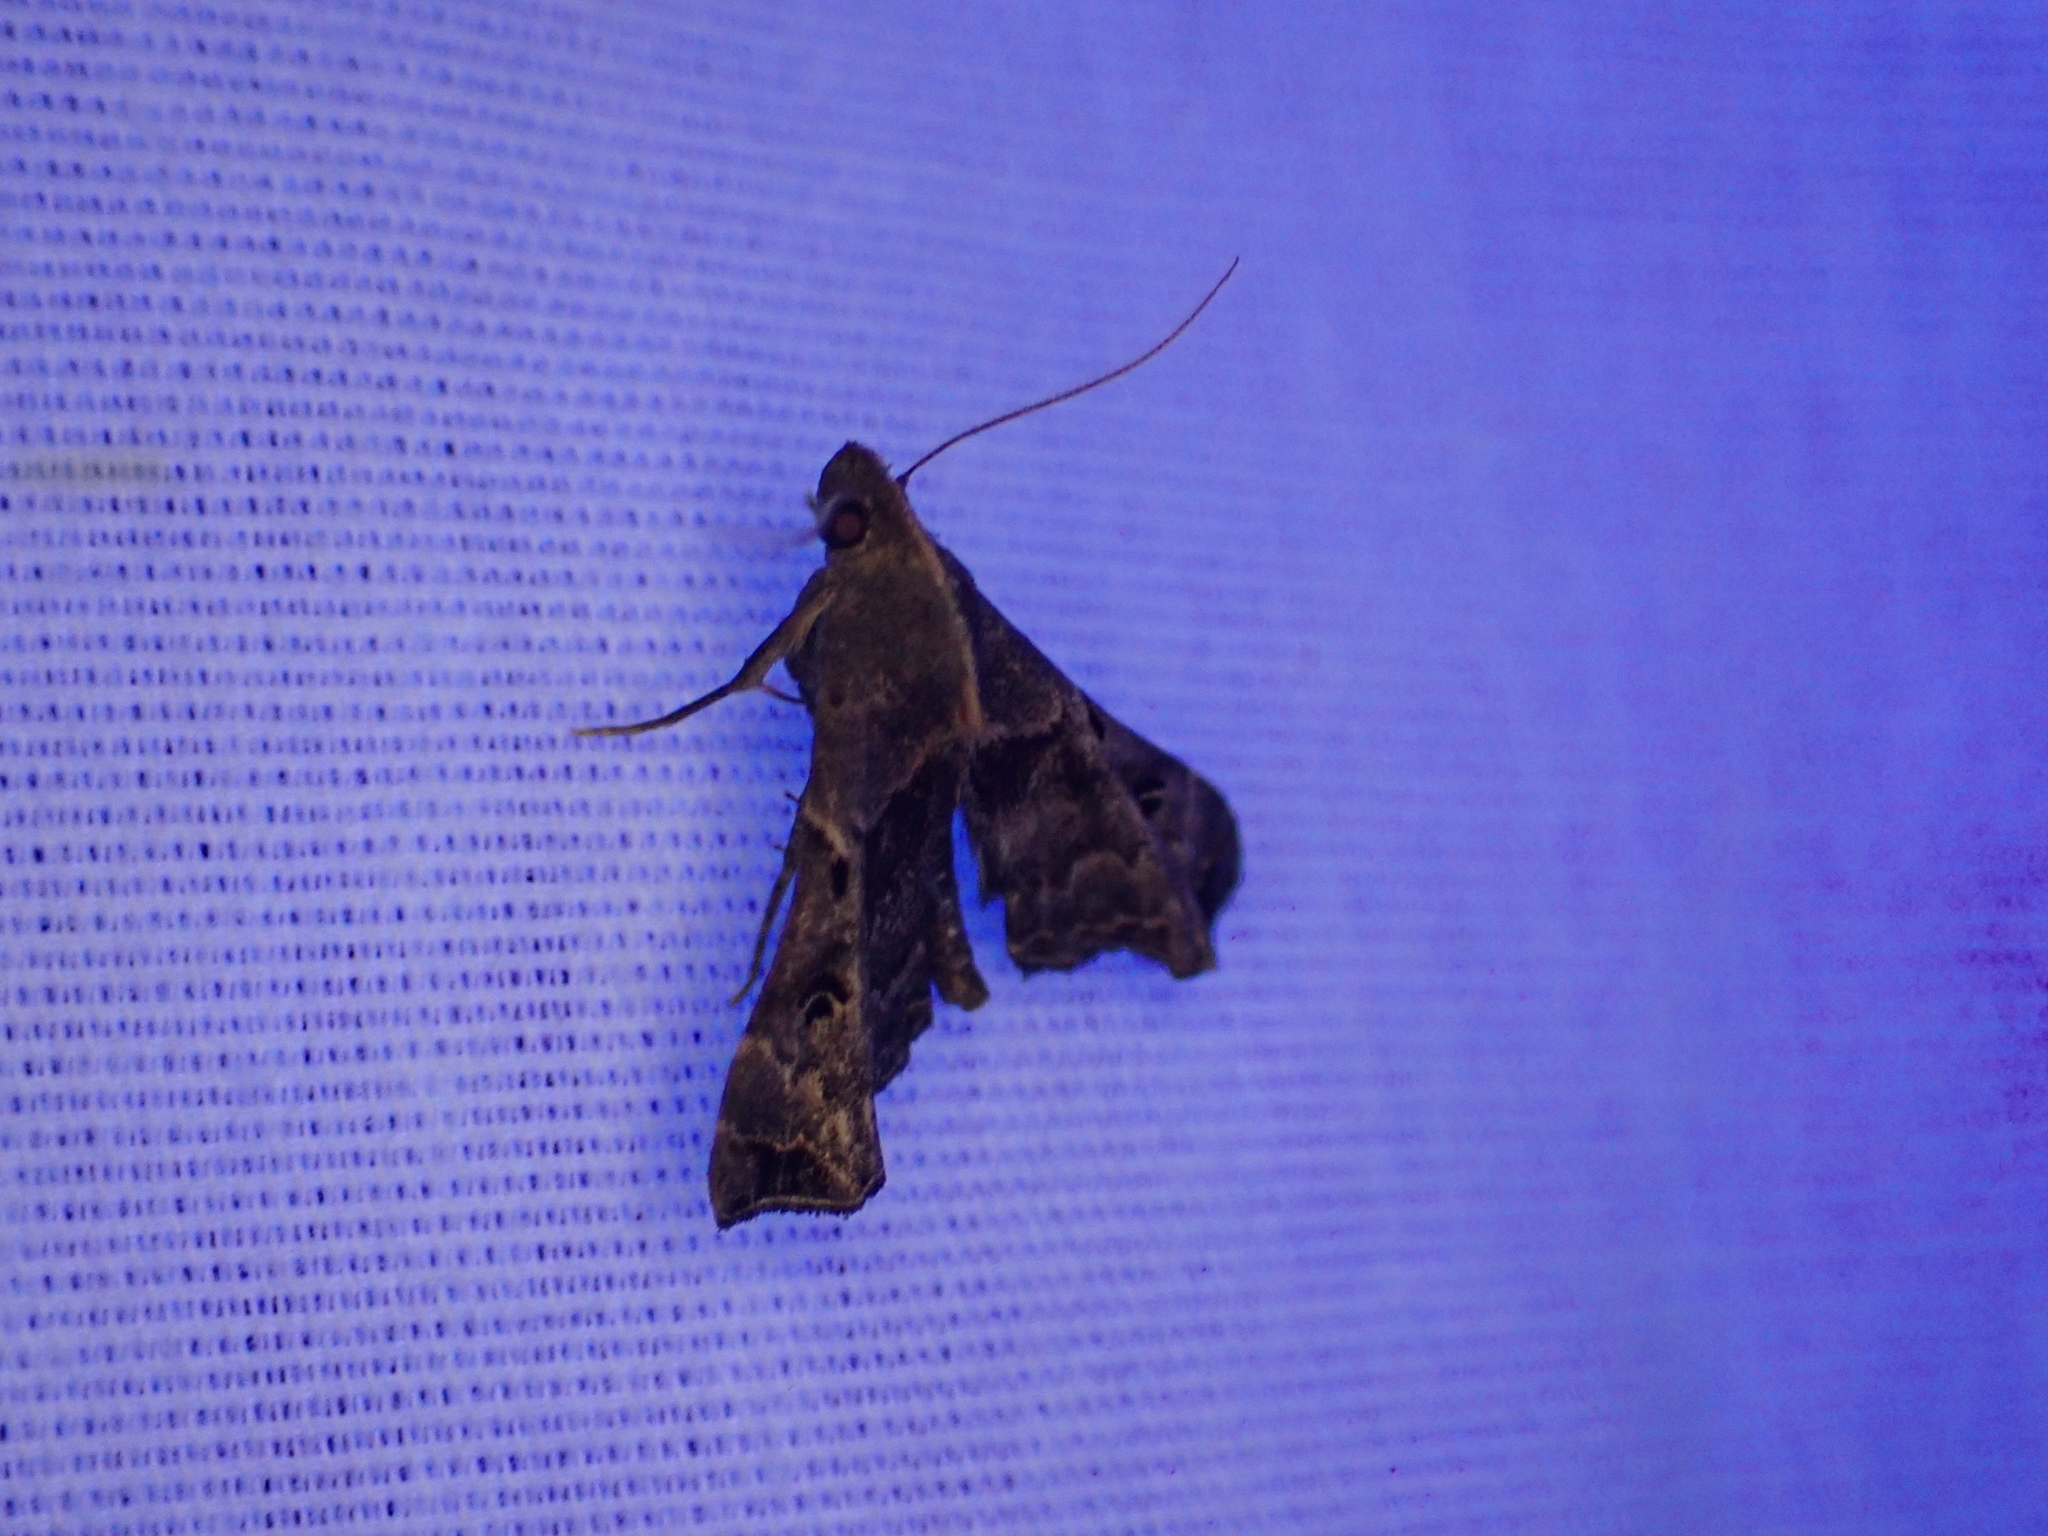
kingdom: Animalia
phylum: Arthropoda
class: Insecta
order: Lepidoptera
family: Erebidae
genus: Palthis
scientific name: Palthis asopialis
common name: Faint-spotted palthis moth
